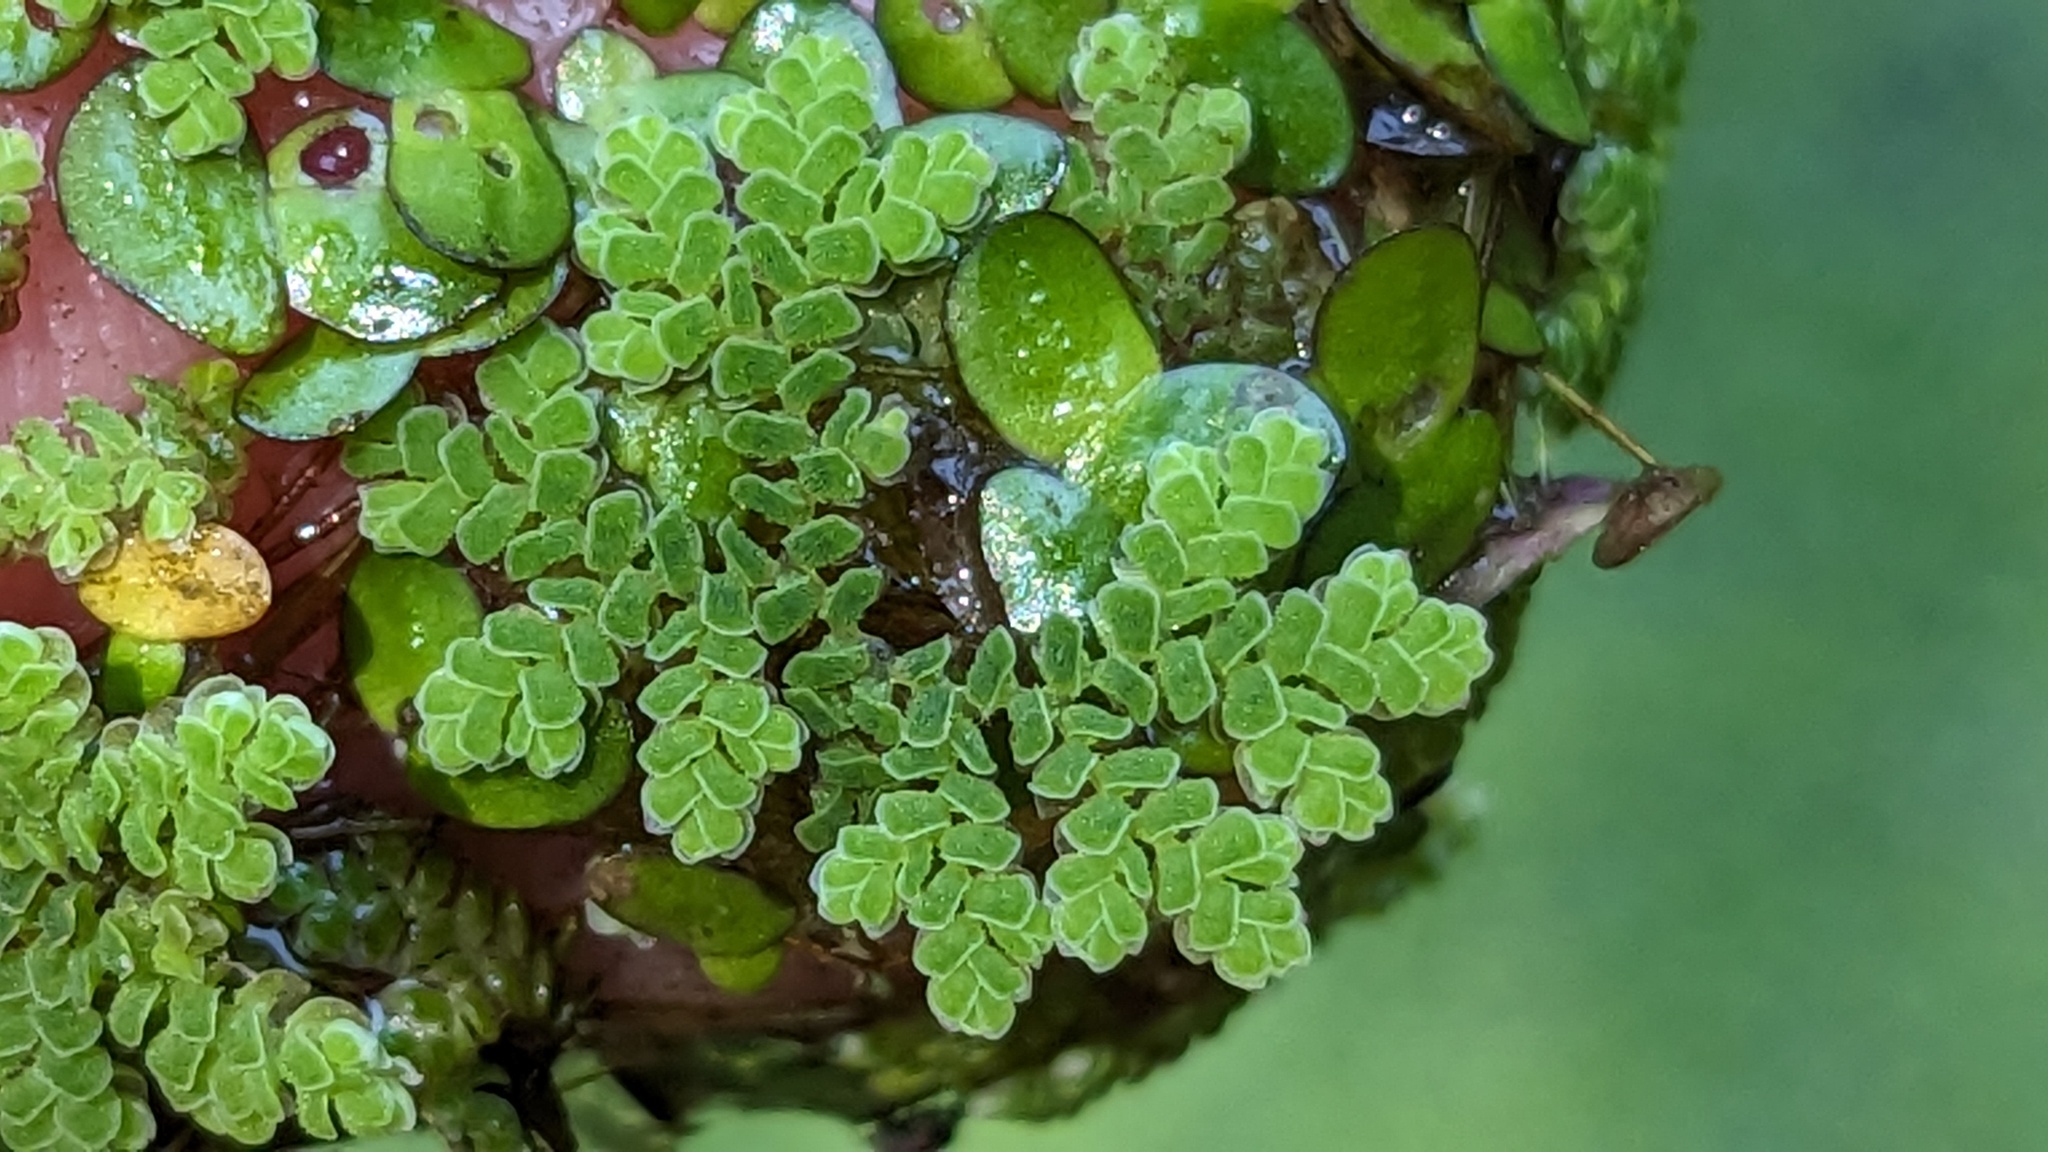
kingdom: Plantae
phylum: Tracheophyta
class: Polypodiopsida
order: Salviniales
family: Salviniaceae
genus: Azolla
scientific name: Azolla cristata
